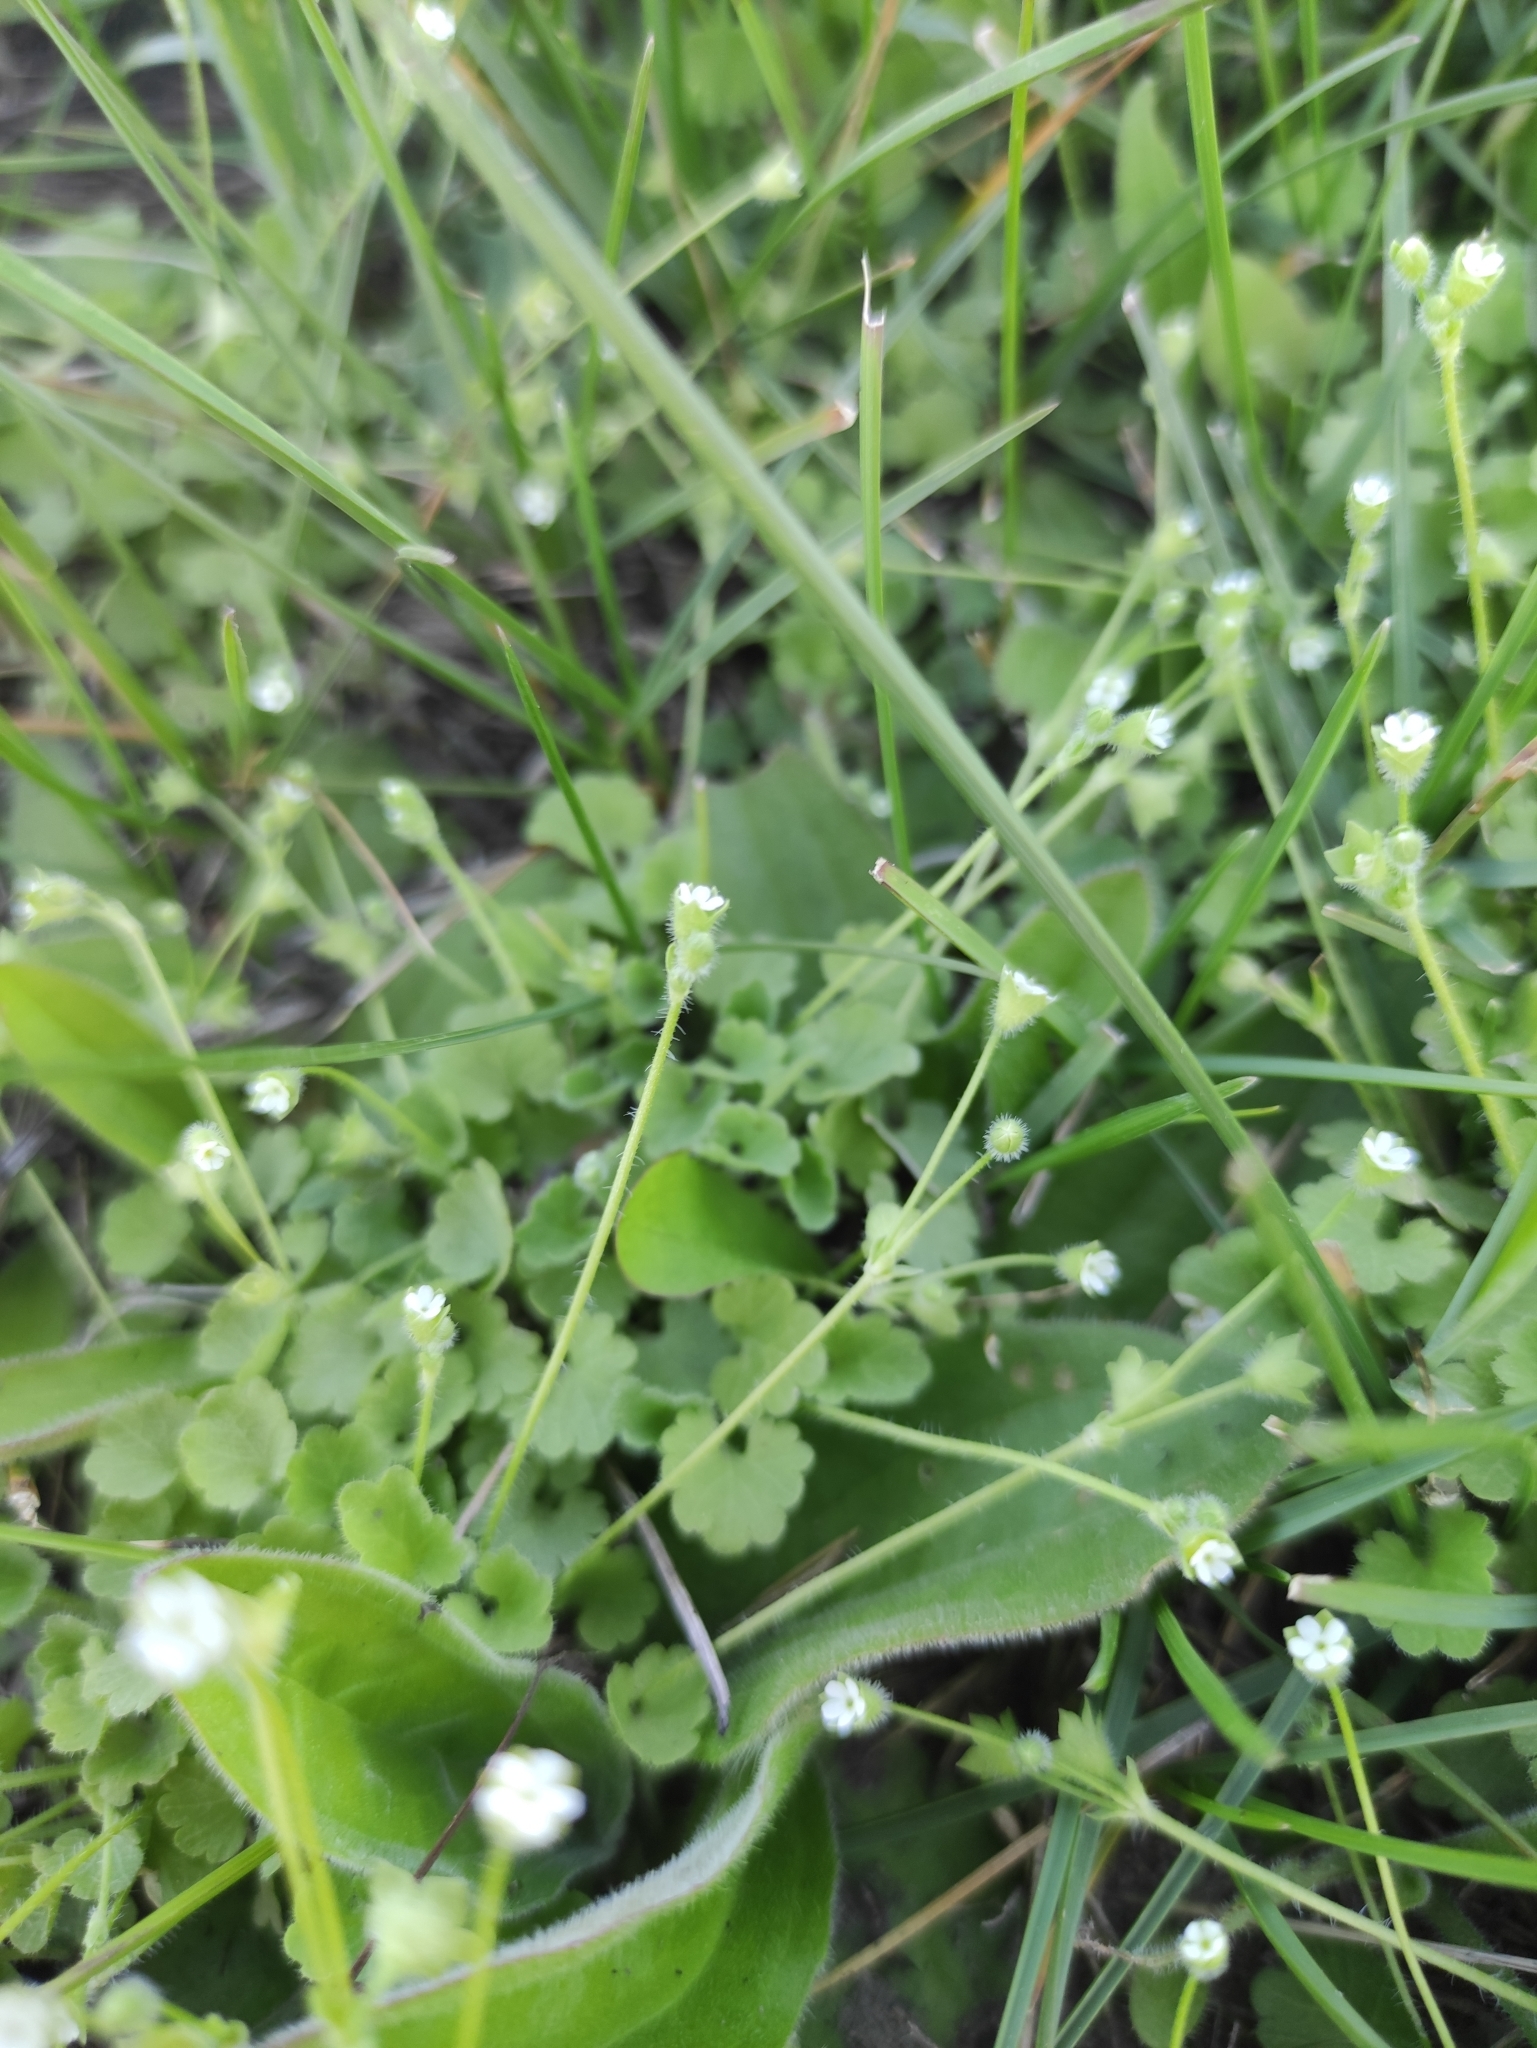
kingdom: Plantae
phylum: Tracheophyta
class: Magnoliopsida
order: Ericales
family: Primulaceae
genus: Androsace
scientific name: Androsace gmelinii
